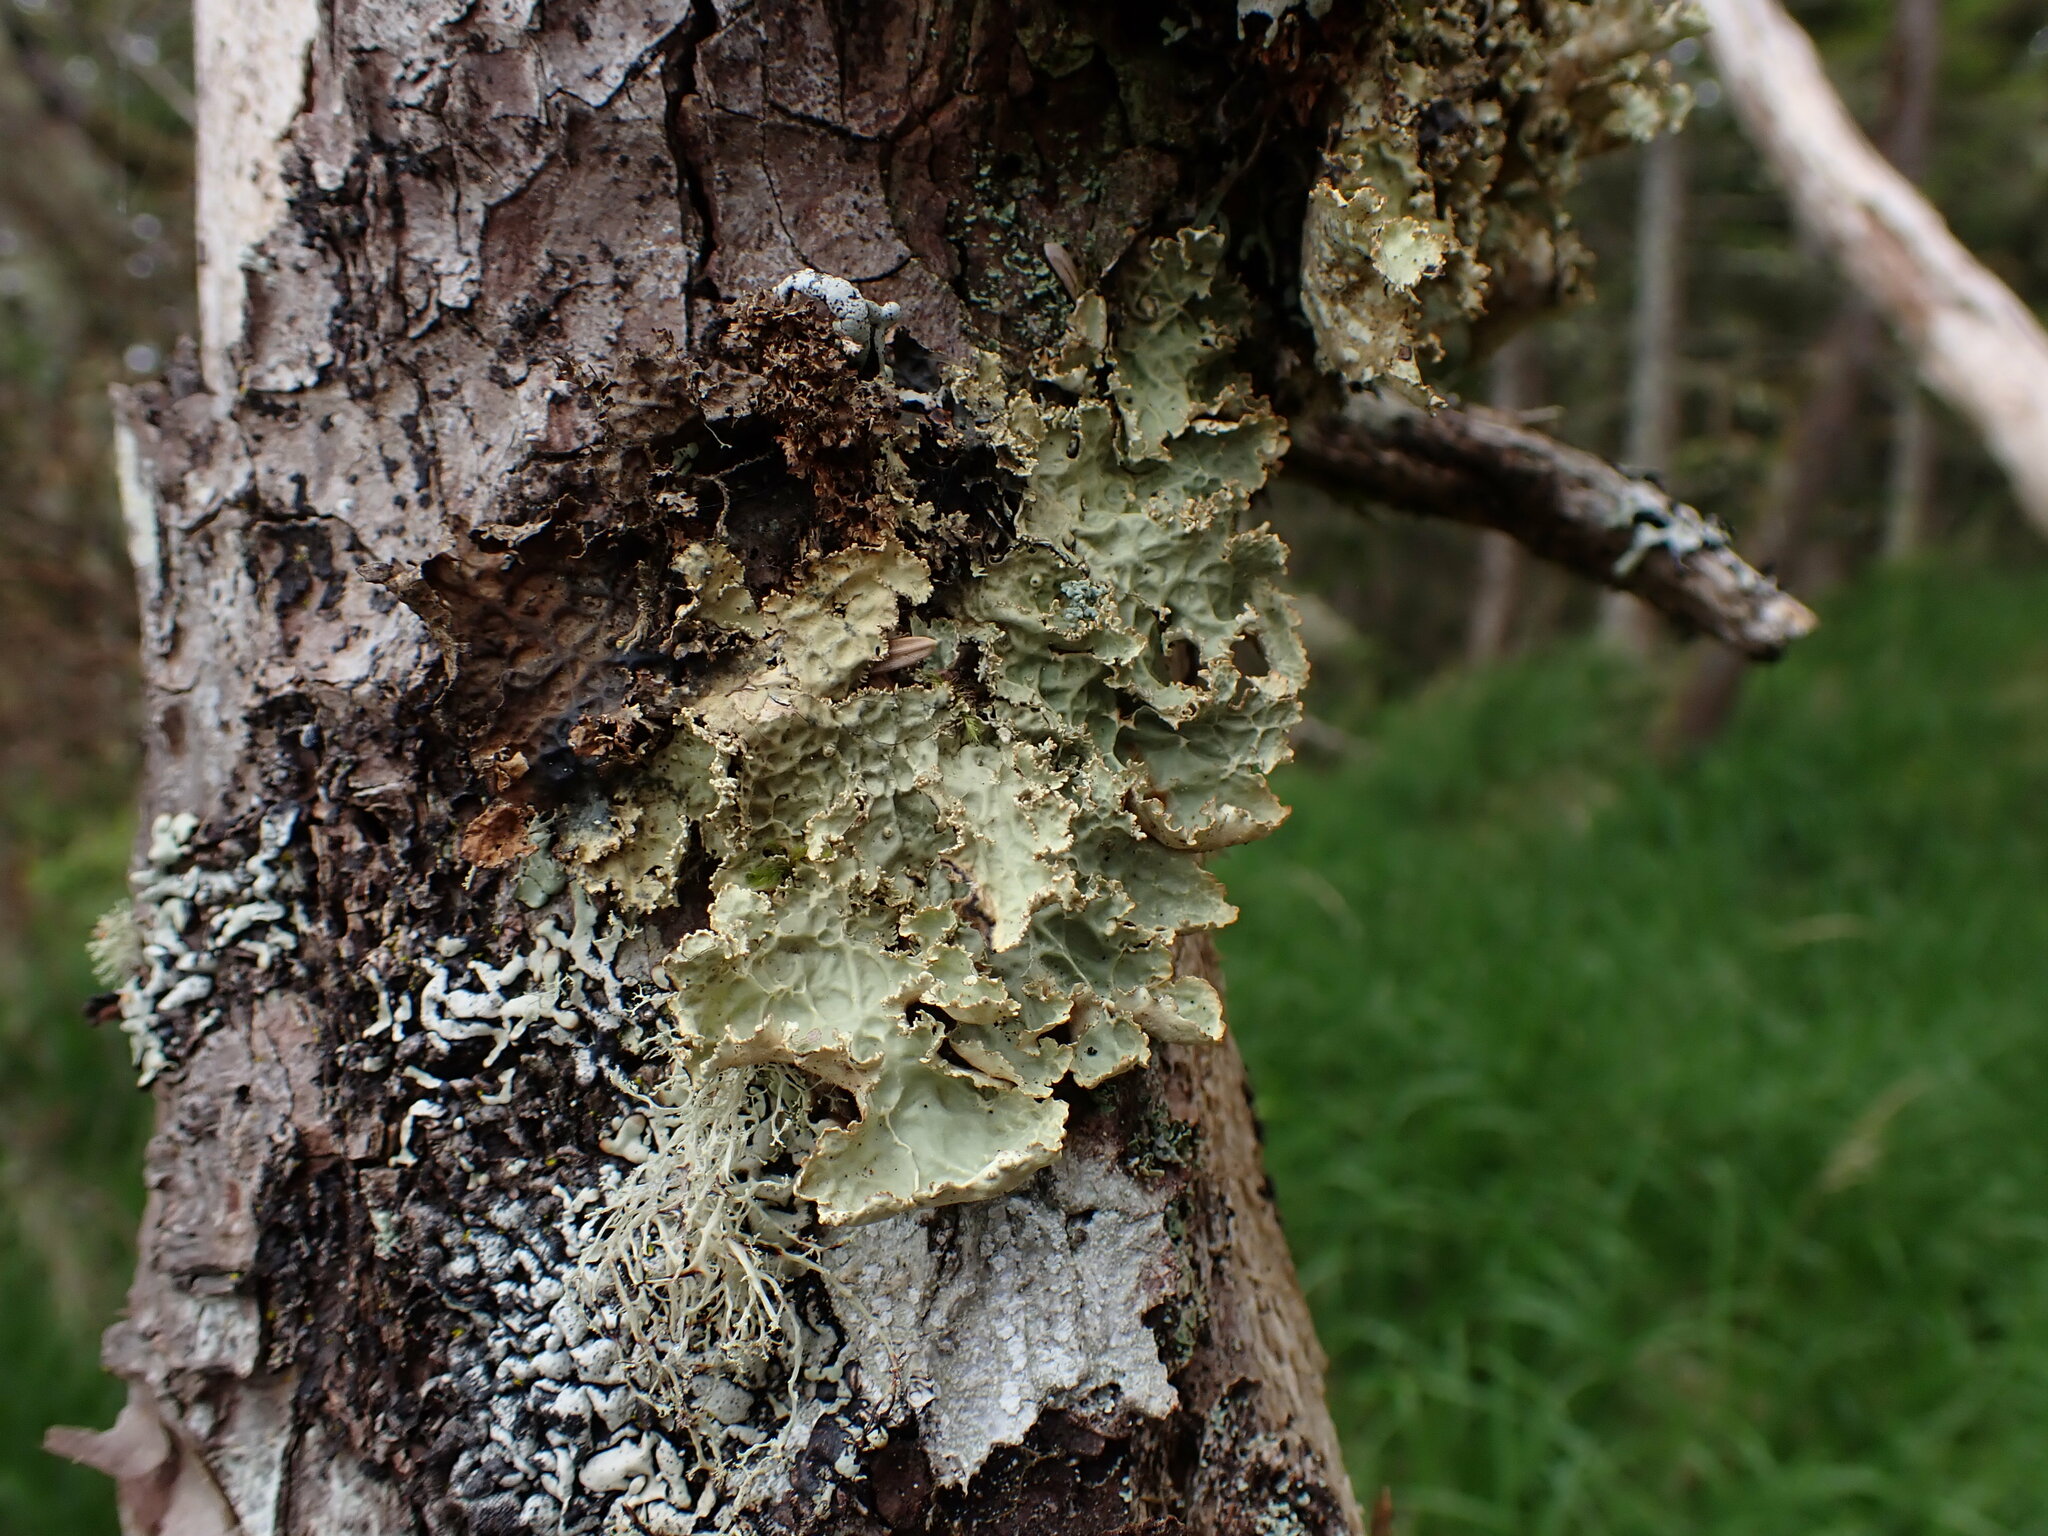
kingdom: Fungi
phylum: Ascomycota
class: Lecanoromycetes
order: Peltigerales
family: Lobariaceae
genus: Lobaria
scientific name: Lobaria oregana
